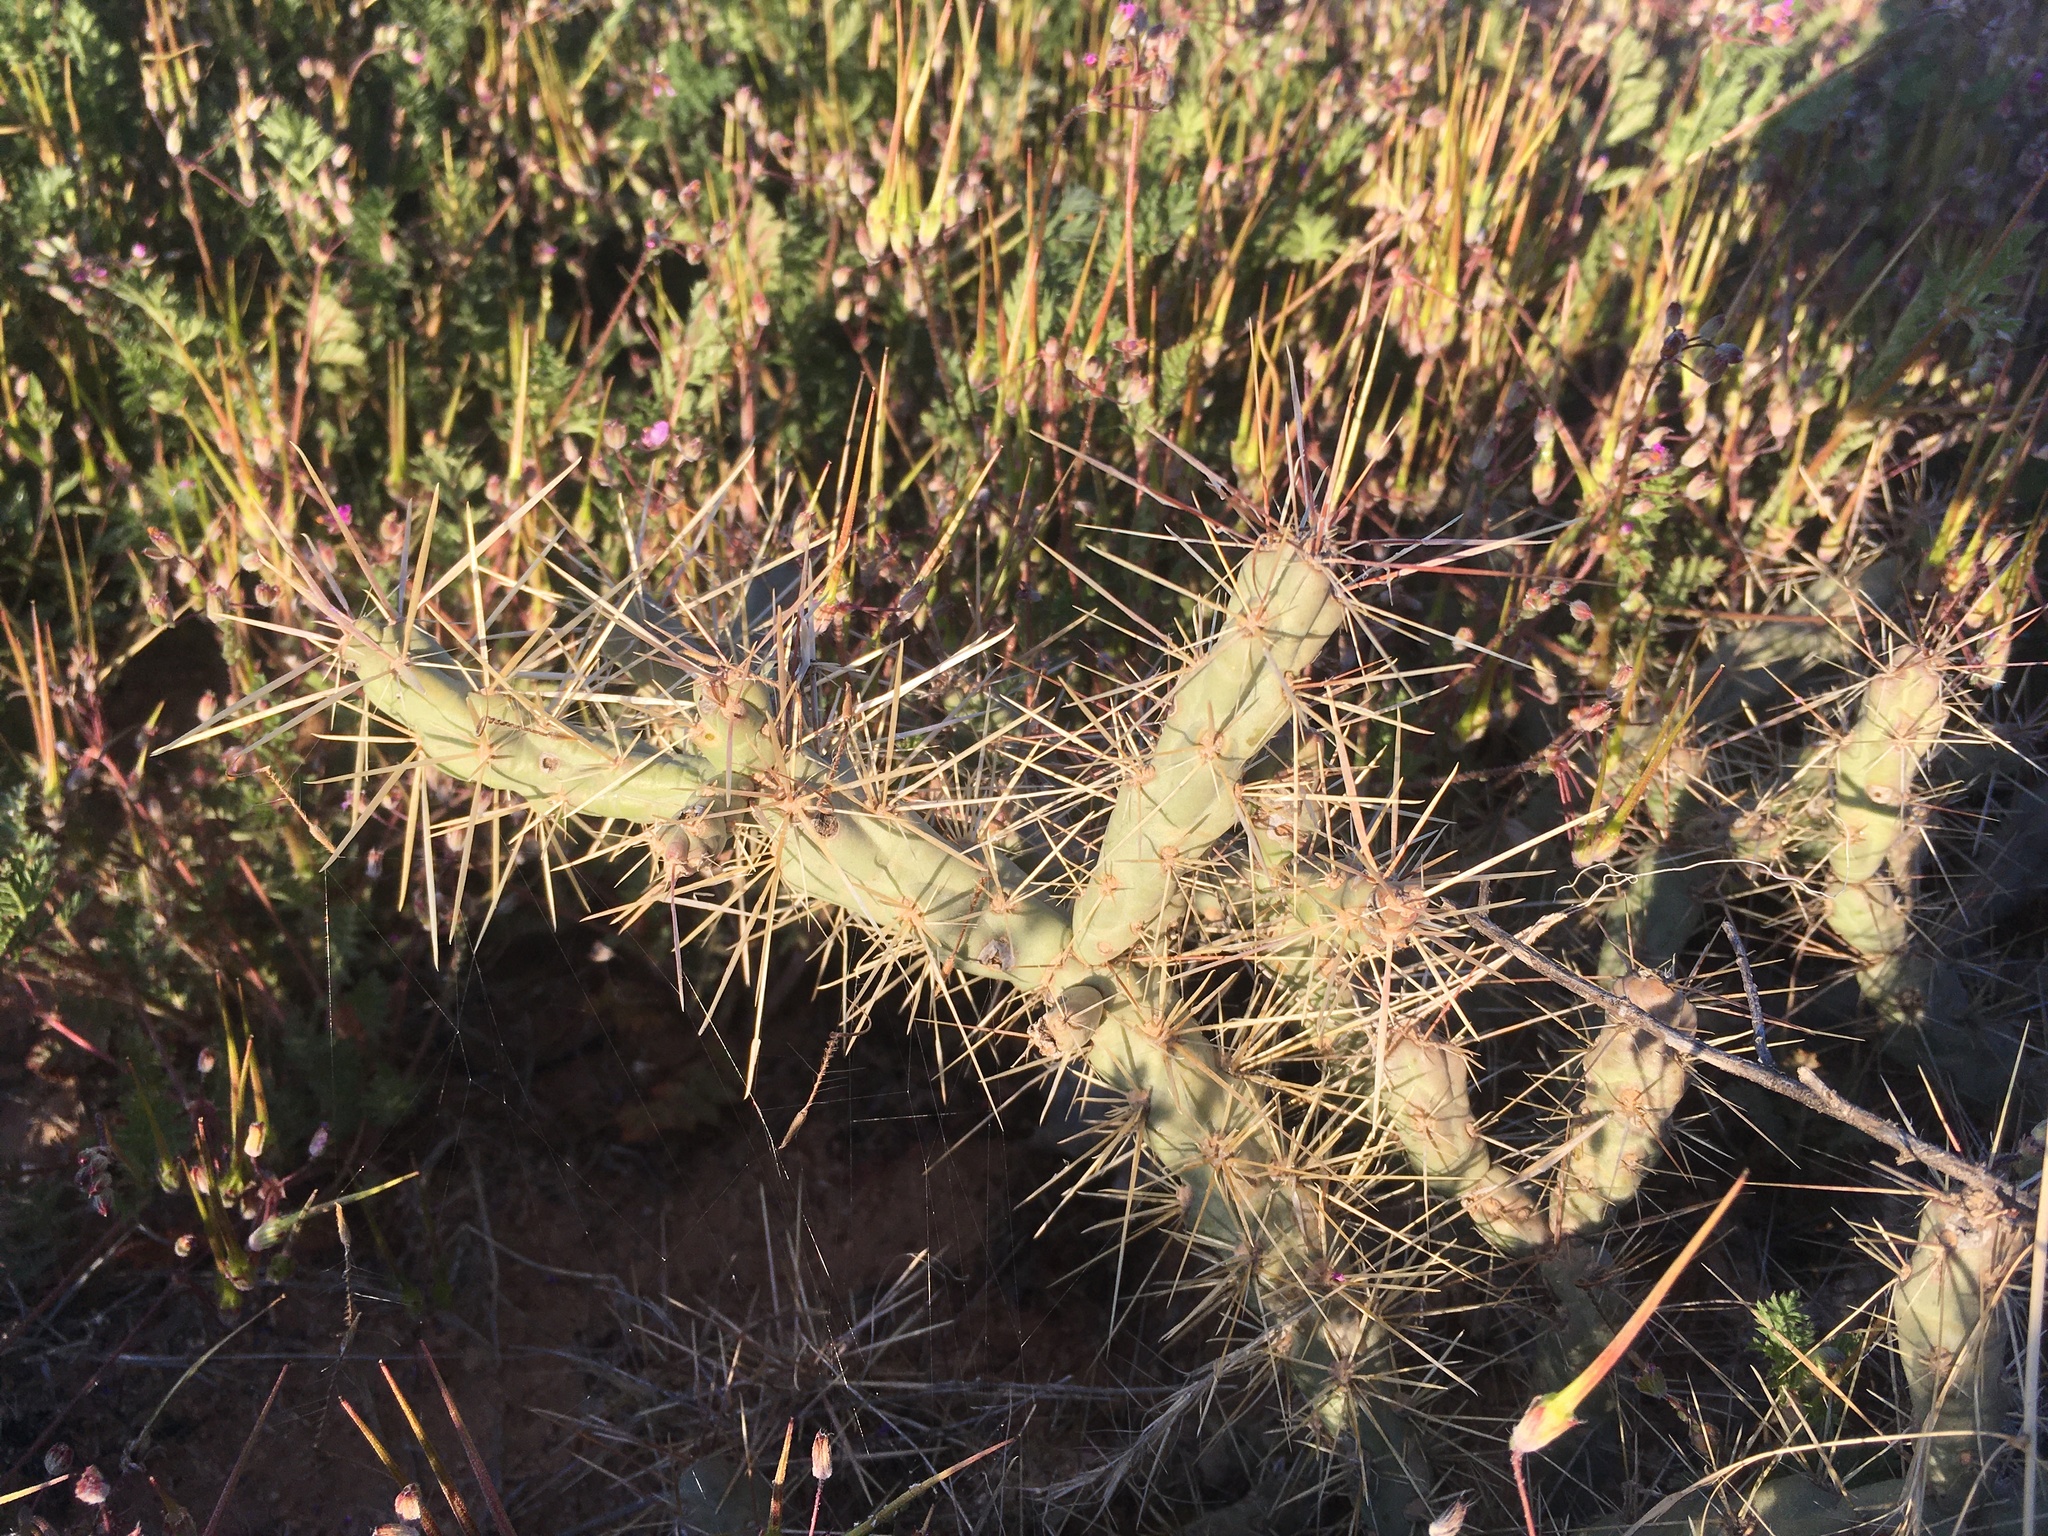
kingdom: Plantae
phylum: Tracheophyta
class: Magnoliopsida
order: Caryophyllales
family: Cactaceae
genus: Cylindropuntia
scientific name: Cylindropuntia davisii
